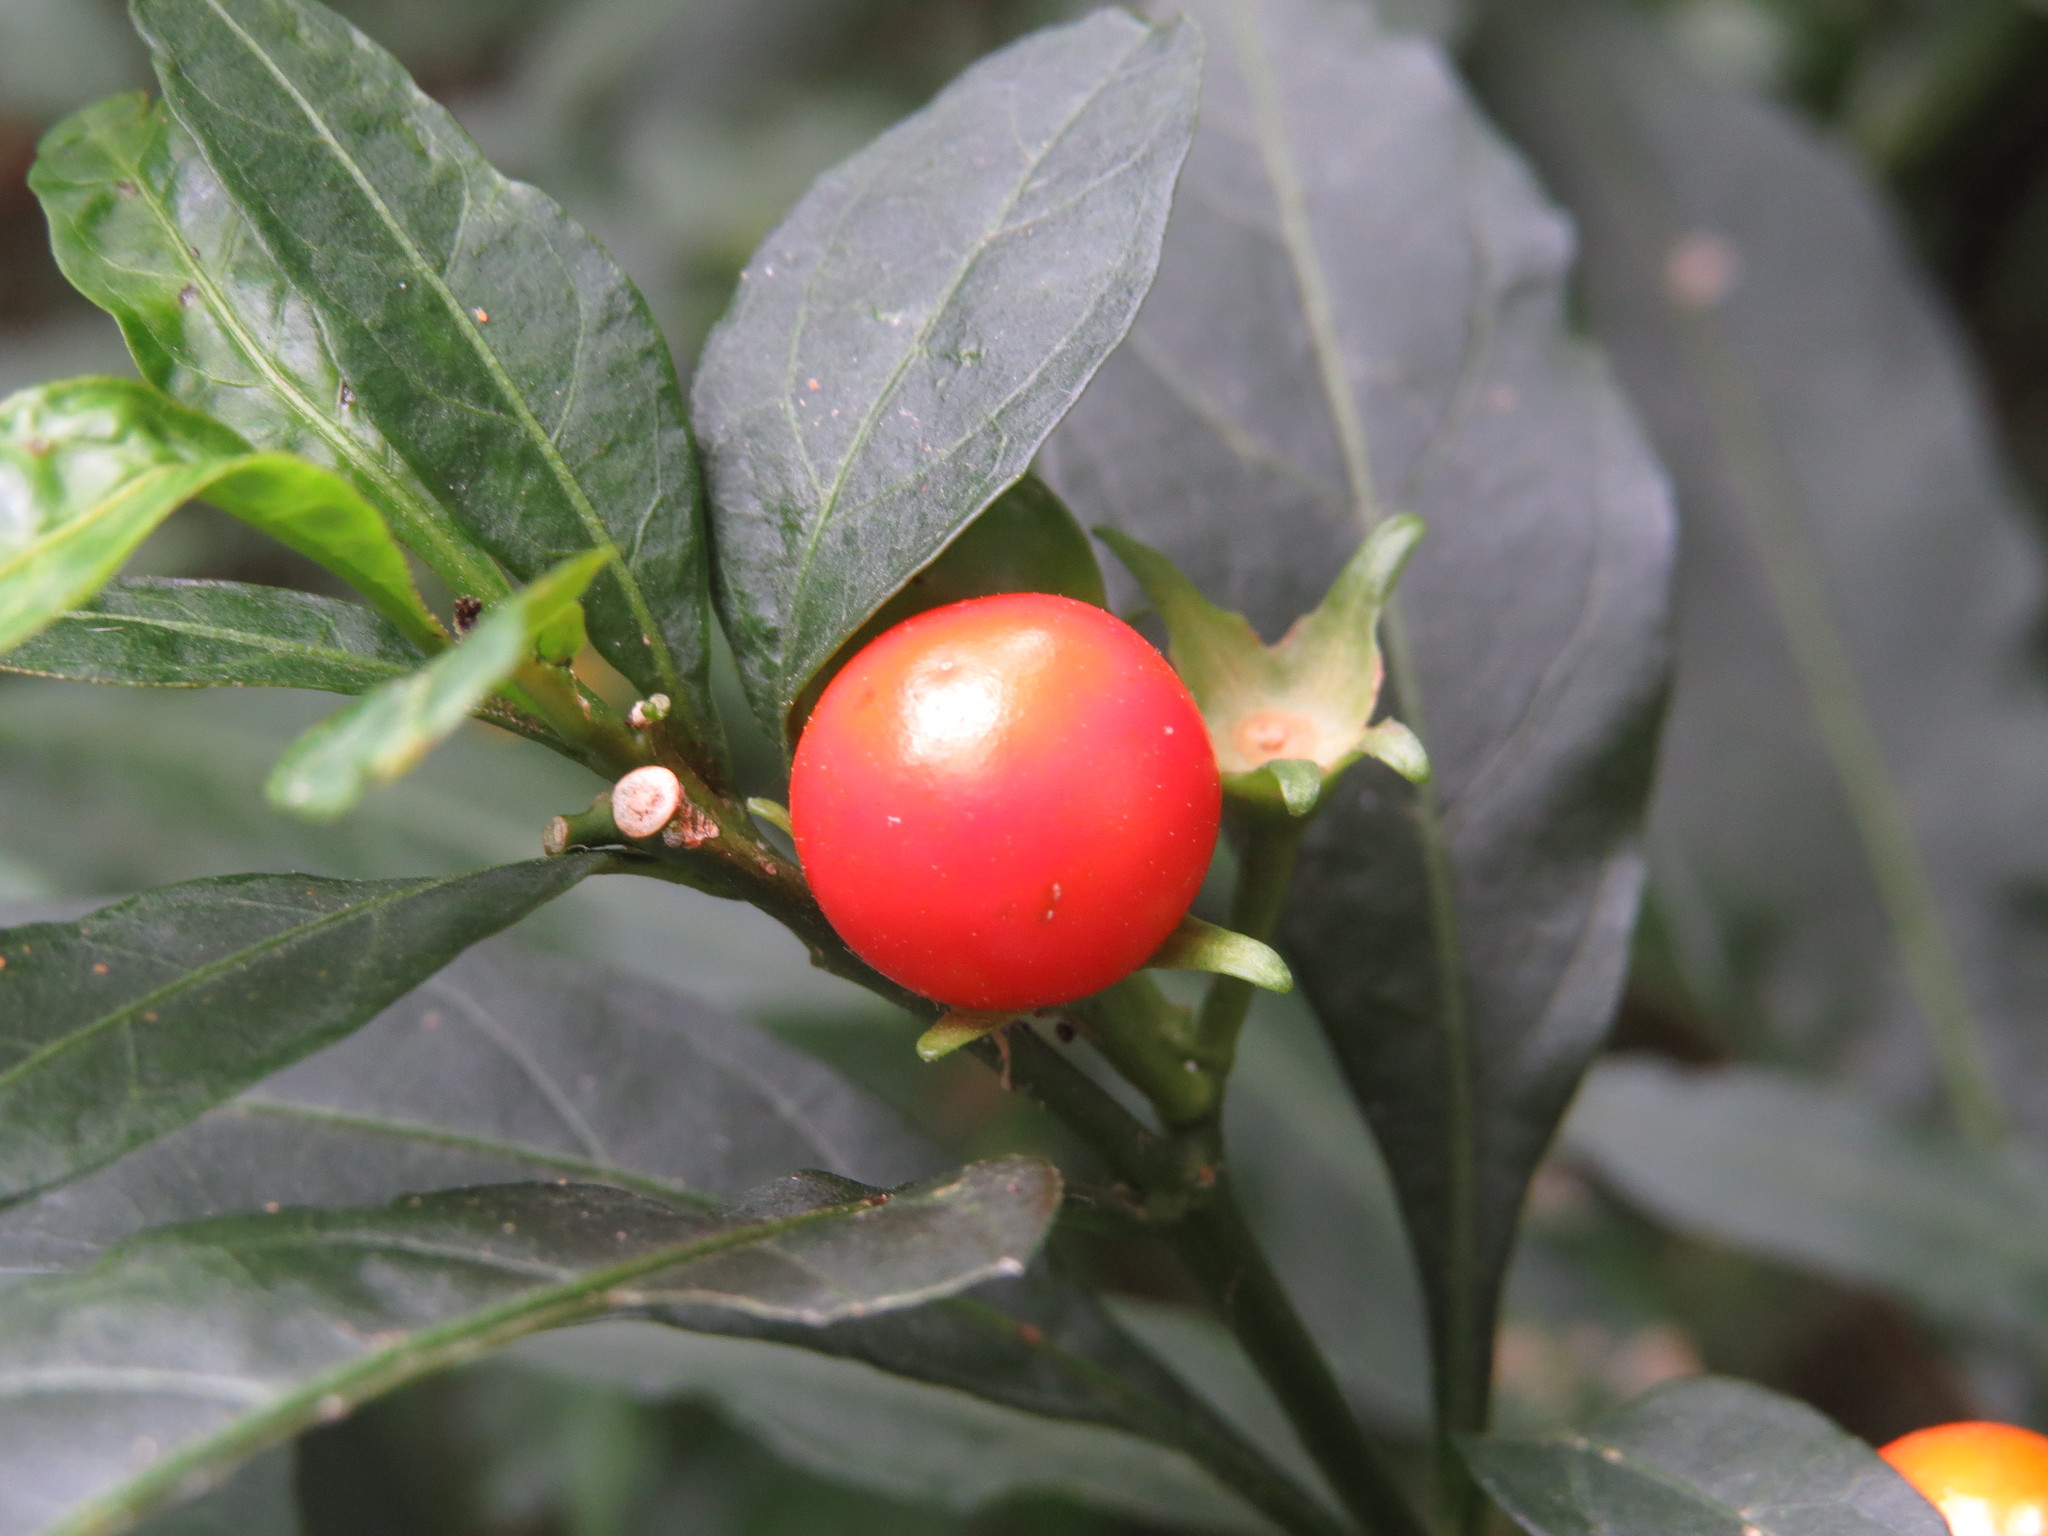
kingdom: Plantae
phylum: Tracheophyta
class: Magnoliopsida
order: Solanales
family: Solanaceae
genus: Solanum
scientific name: Solanum pseudocapsicum
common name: Jerusalem cherry
